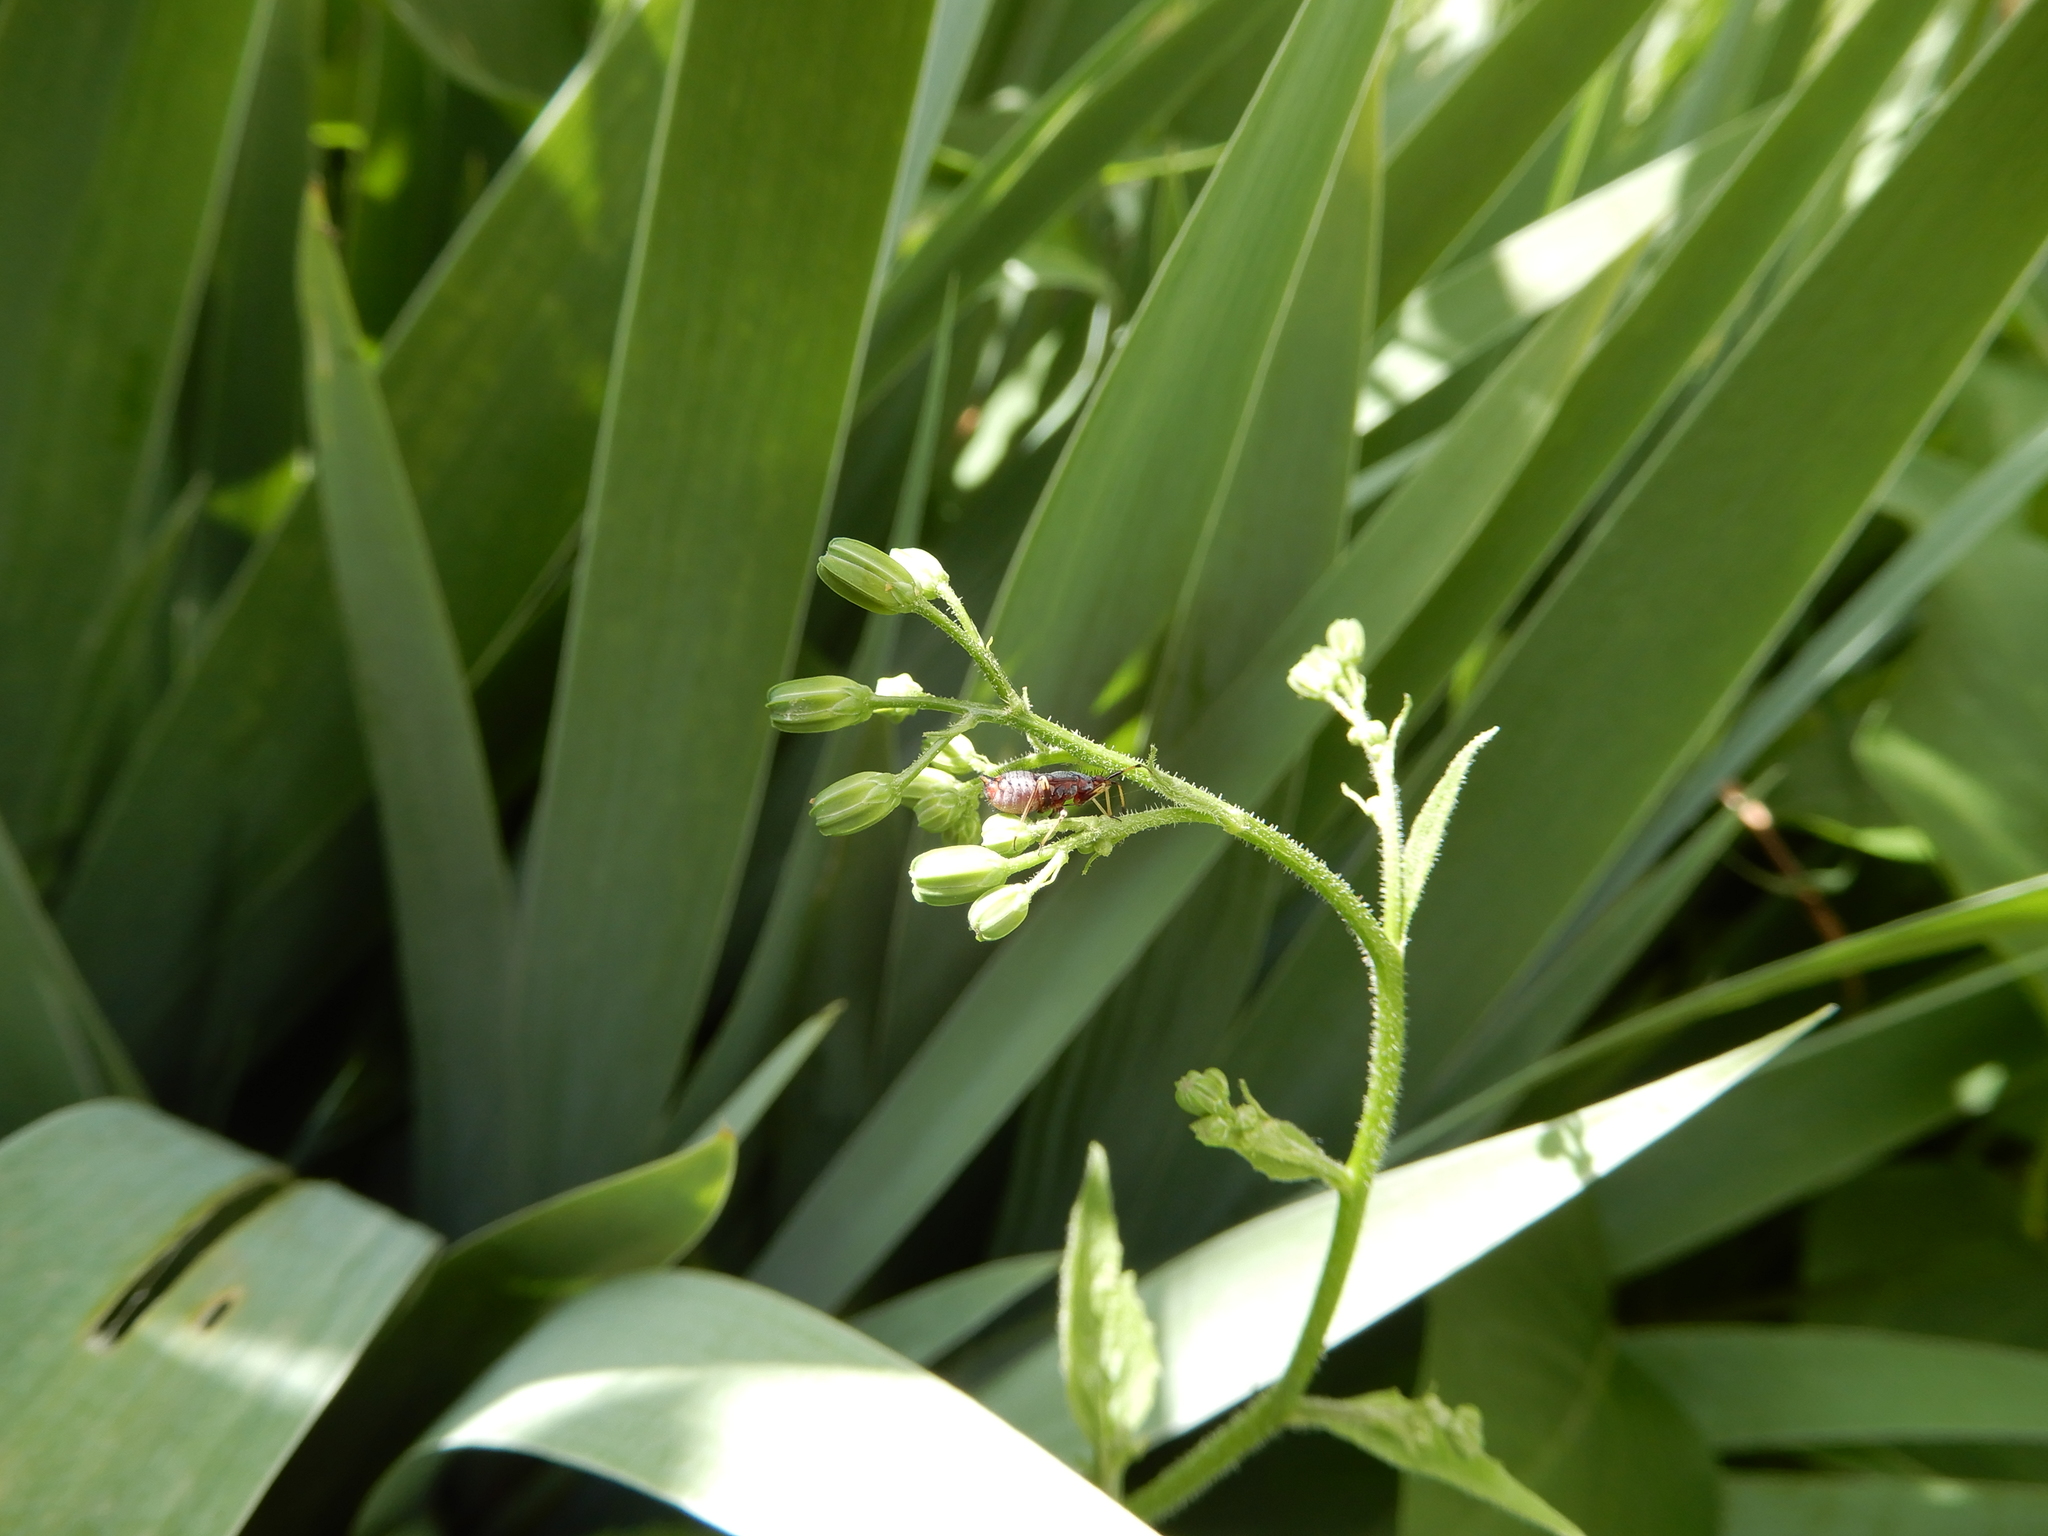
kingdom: Animalia
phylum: Arthropoda
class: Insecta
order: Hemiptera
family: Miridae
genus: Deraeocoris
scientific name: Deraeocoris ruber
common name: Plant bug
